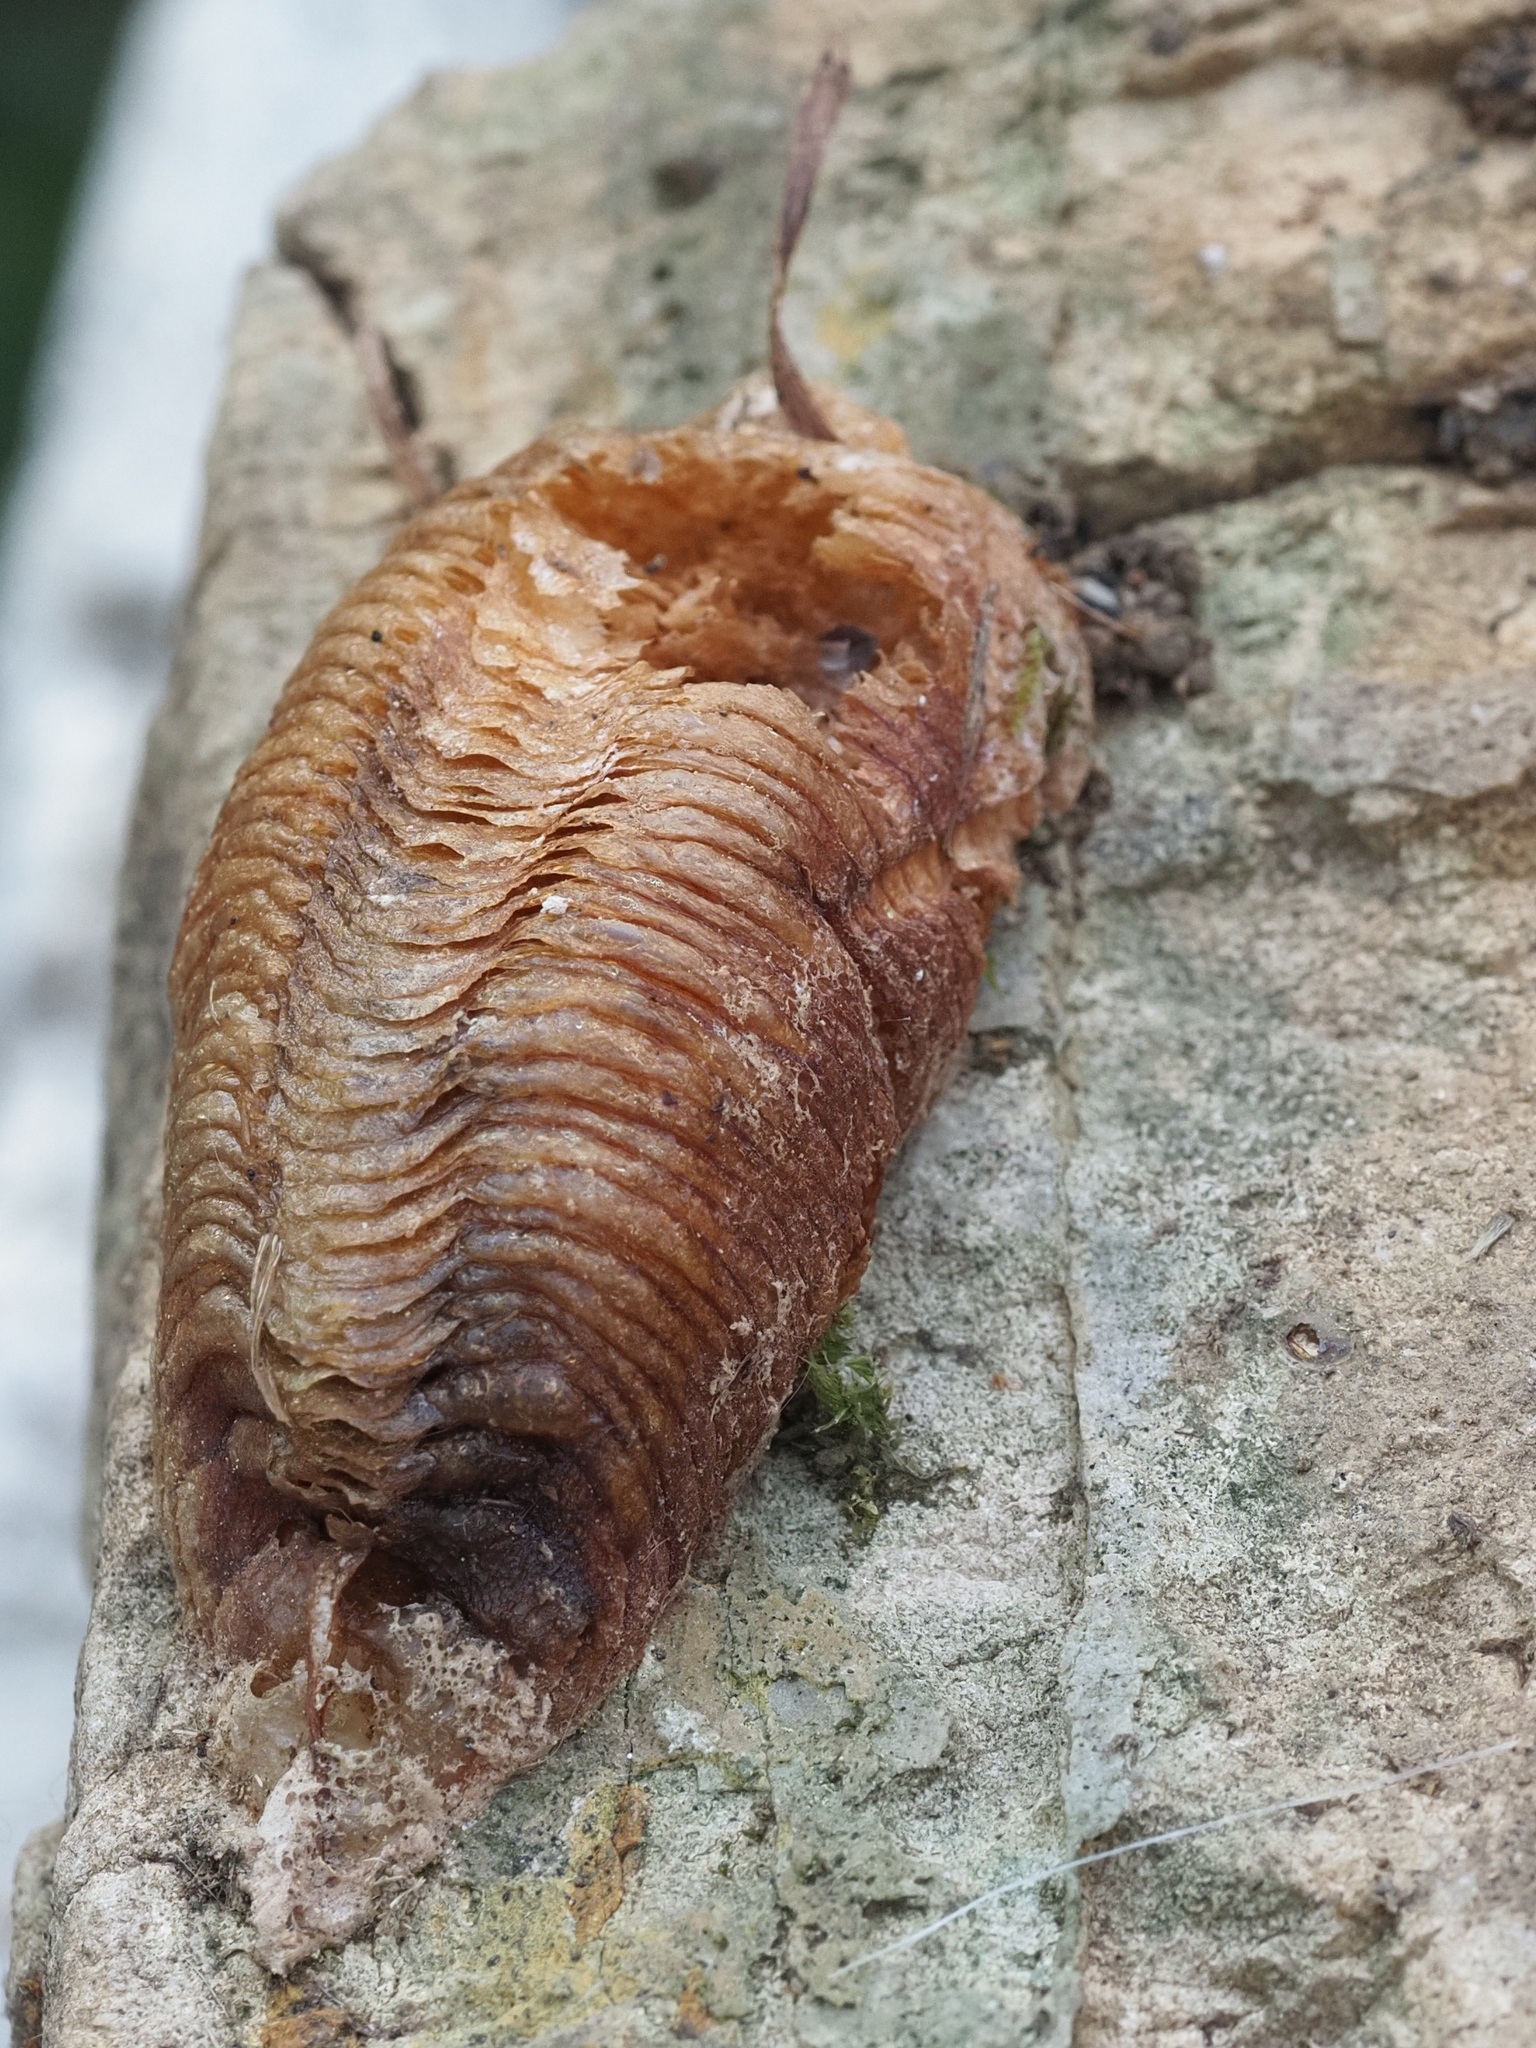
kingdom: Animalia
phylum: Arthropoda
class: Insecta
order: Mantodea
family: Mantidae
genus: Mantis
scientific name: Mantis religiosa
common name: Praying mantis
